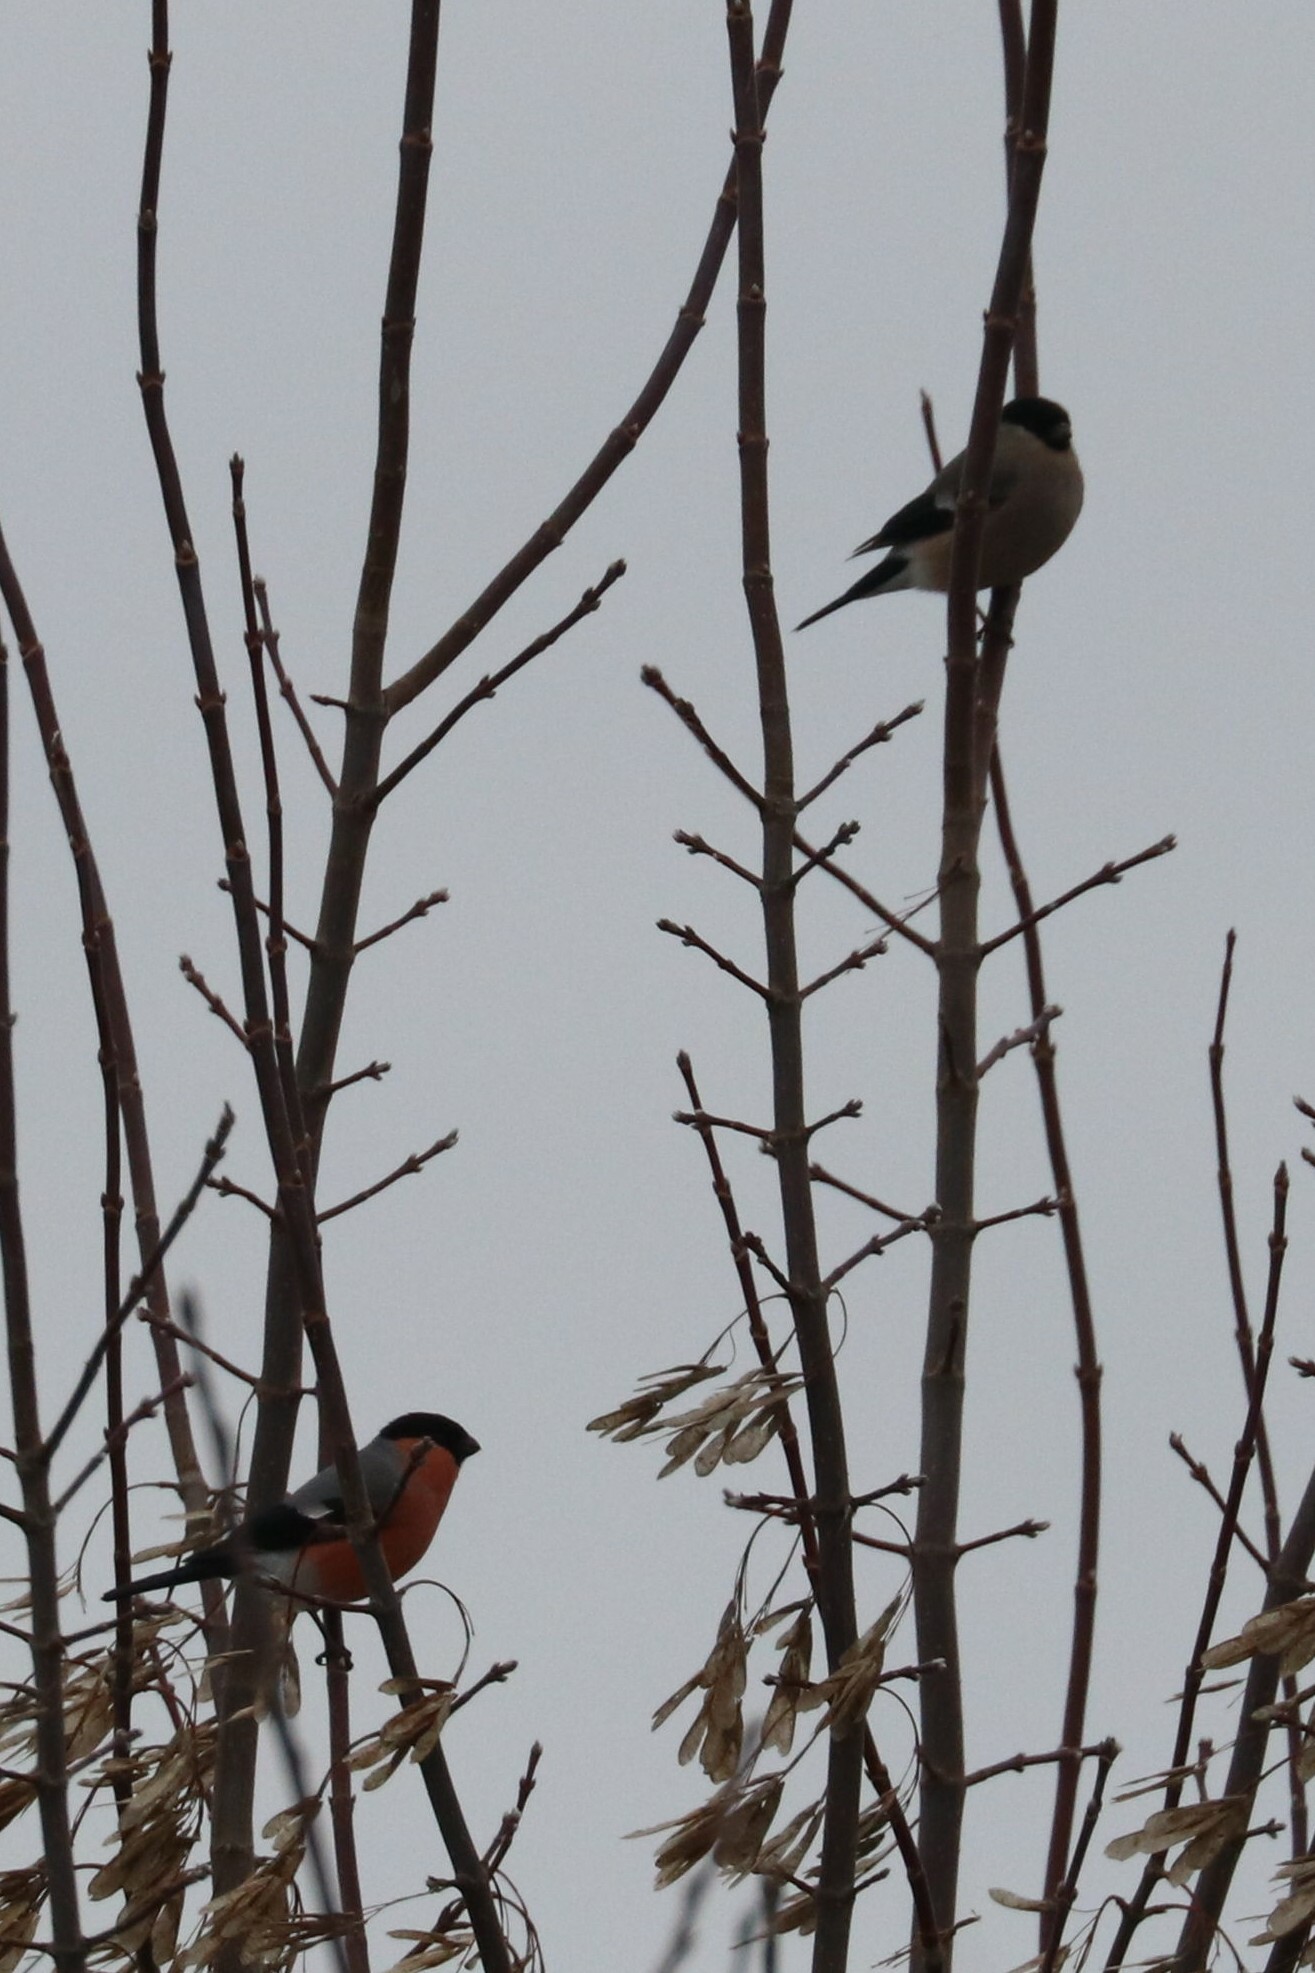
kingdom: Animalia
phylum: Chordata
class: Aves
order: Passeriformes
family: Fringillidae
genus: Pyrrhula
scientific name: Pyrrhula pyrrhula
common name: Eurasian bullfinch
